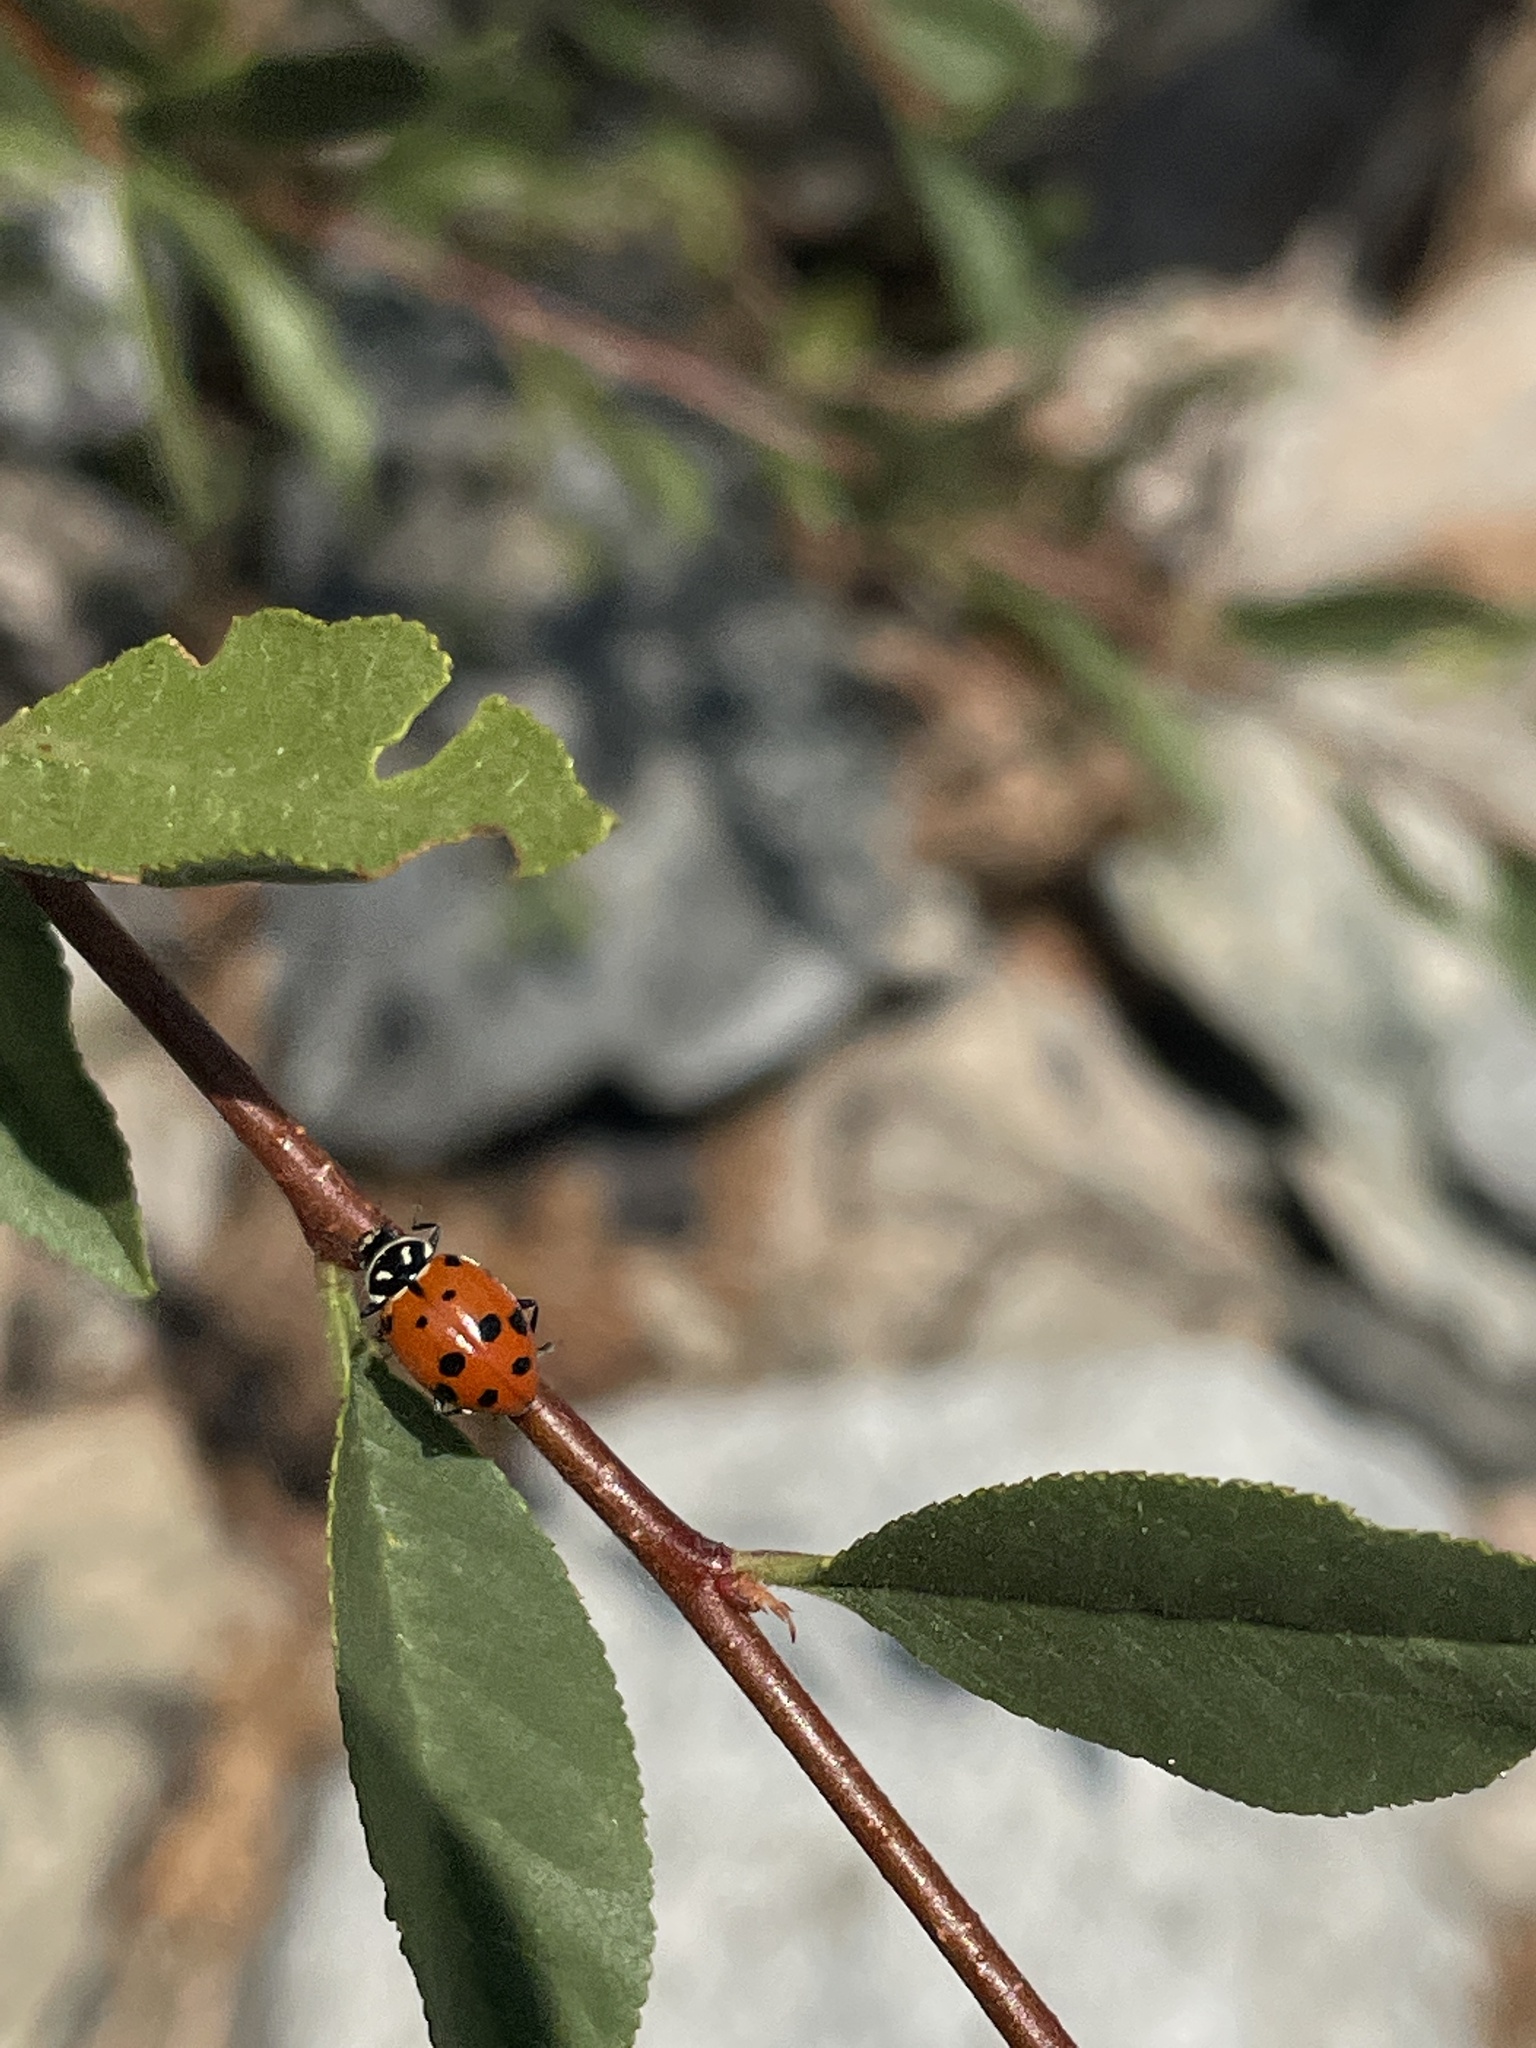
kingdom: Animalia
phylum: Arthropoda
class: Insecta
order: Coleoptera
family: Coccinellidae
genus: Hippodamia
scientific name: Hippodamia convergens
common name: Convergent lady beetle
